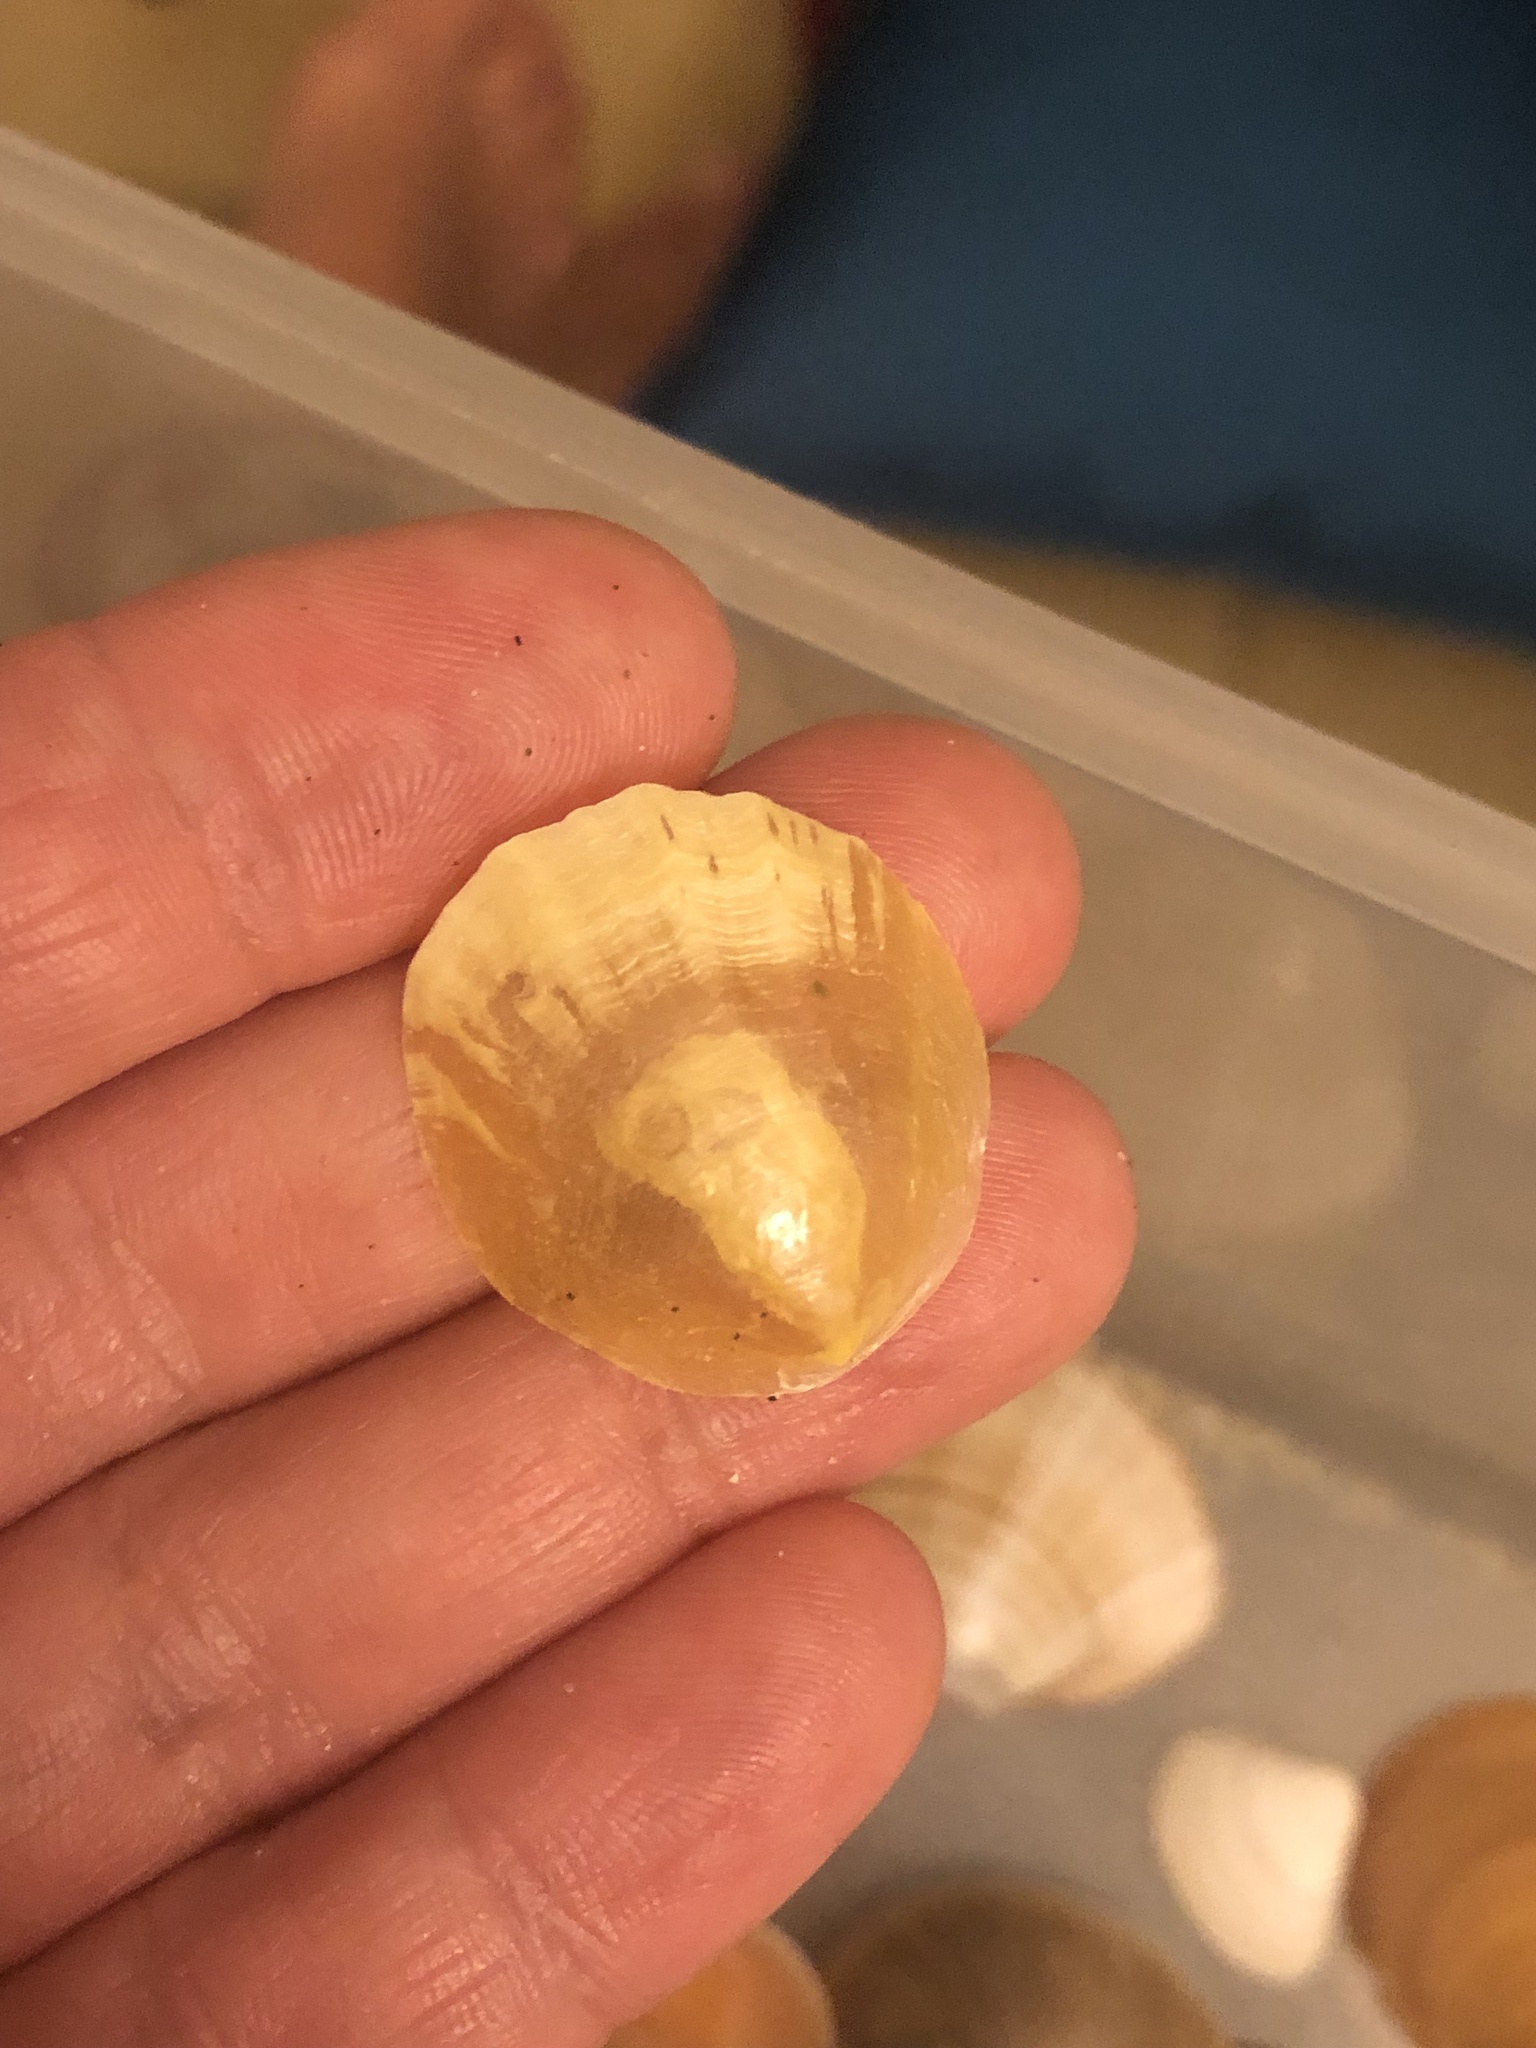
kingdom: Animalia
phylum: Mollusca
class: Bivalvia
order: Pectinida
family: Anomiidae
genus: Anomia
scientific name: Anomia ephippium
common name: Saddle oyster
